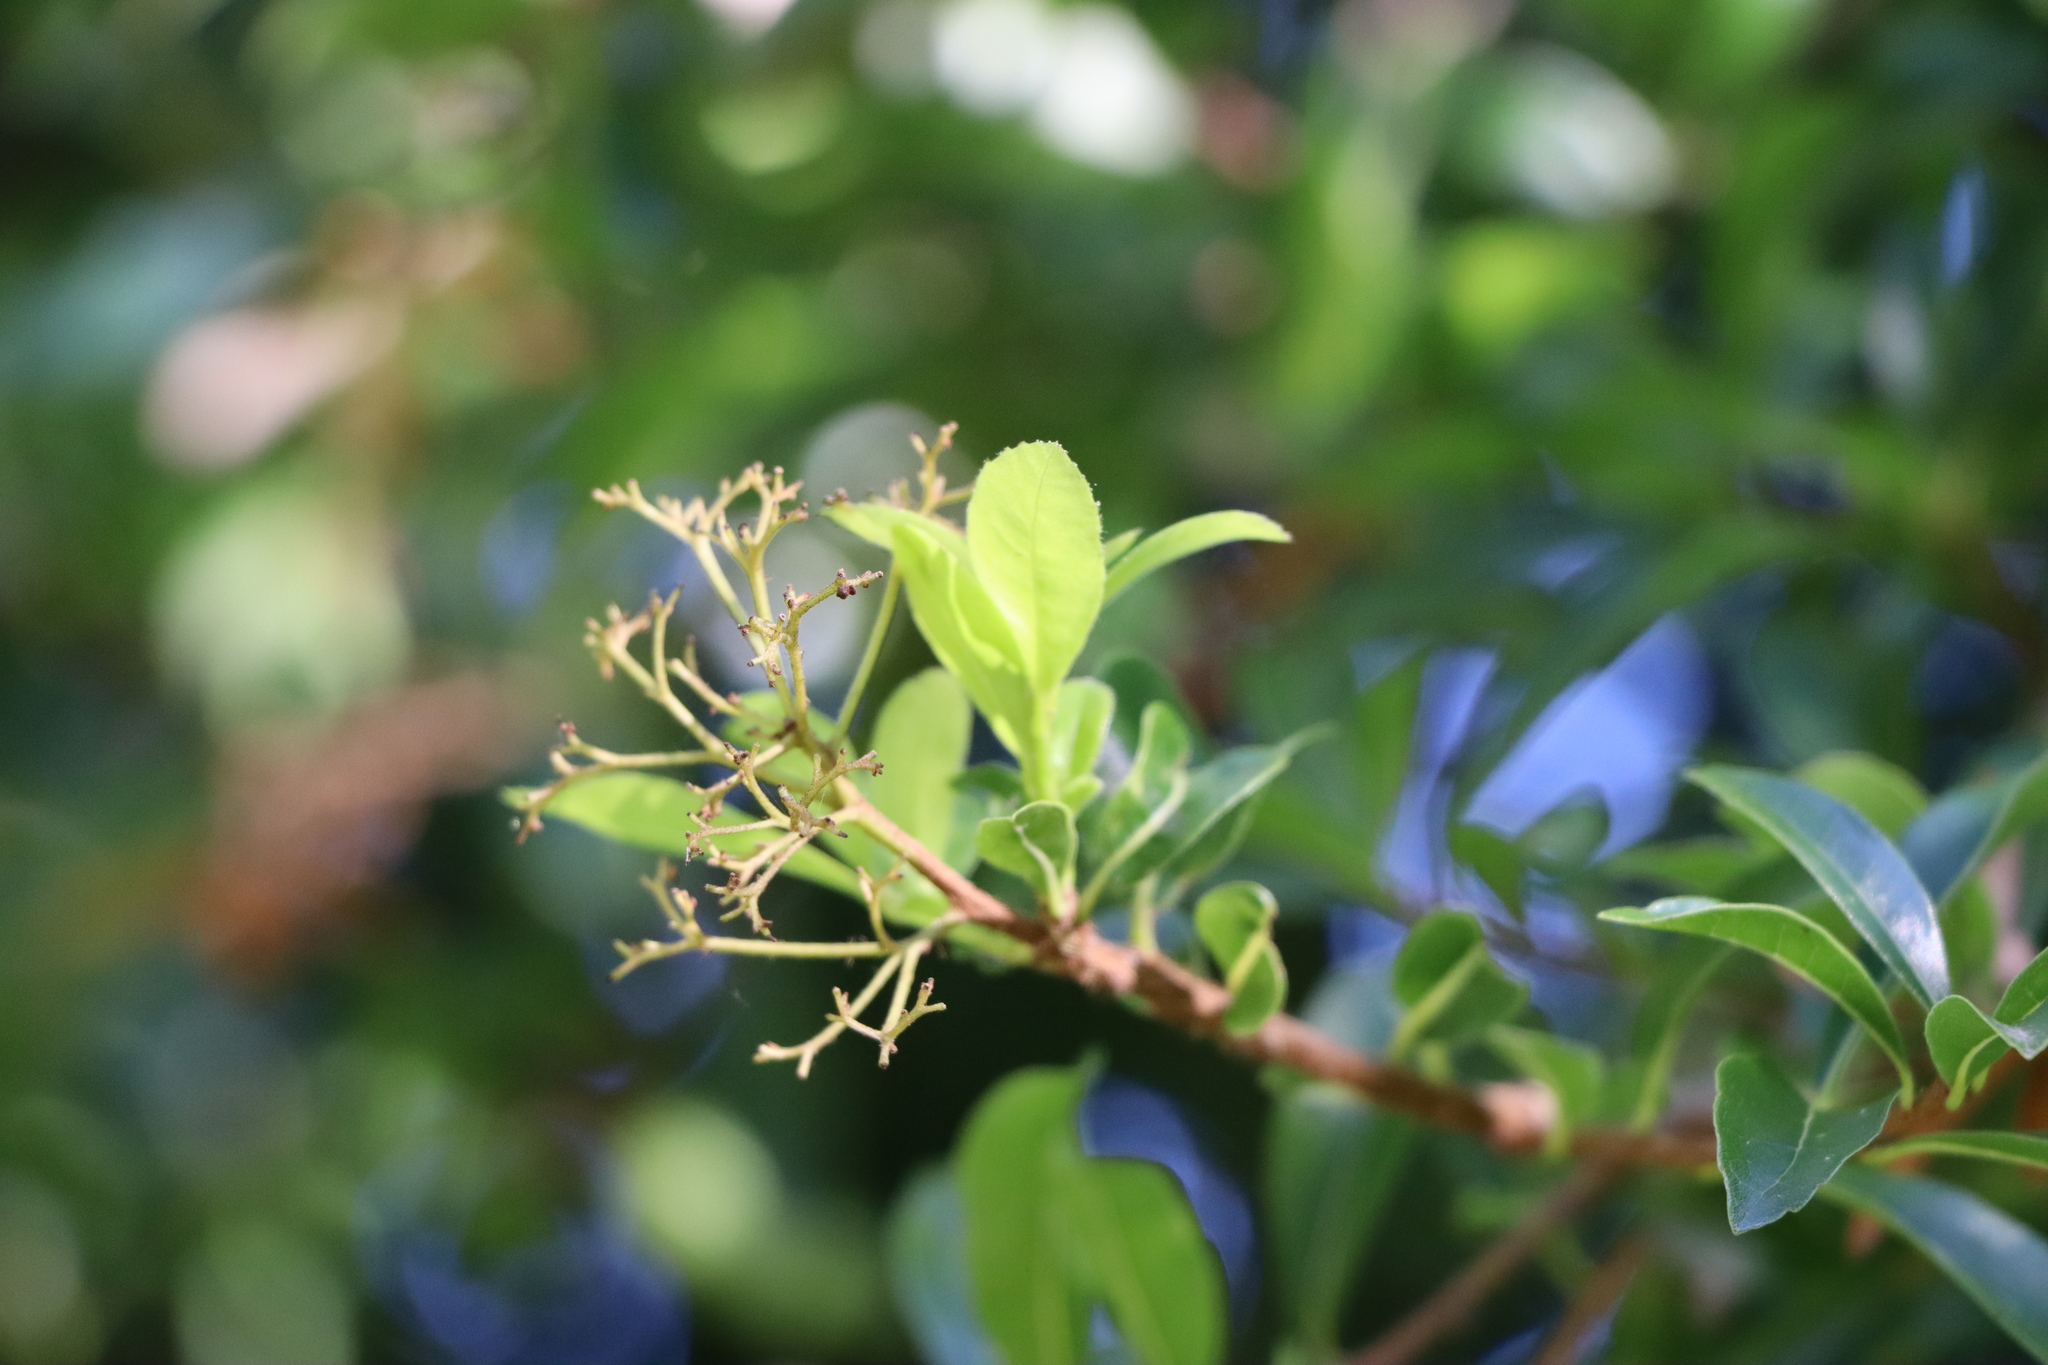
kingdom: Plantae
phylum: Tracheophyta
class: Magnoliopsida
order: Boraginales
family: Cordiaceae
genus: Cordia
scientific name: Cordia americana
